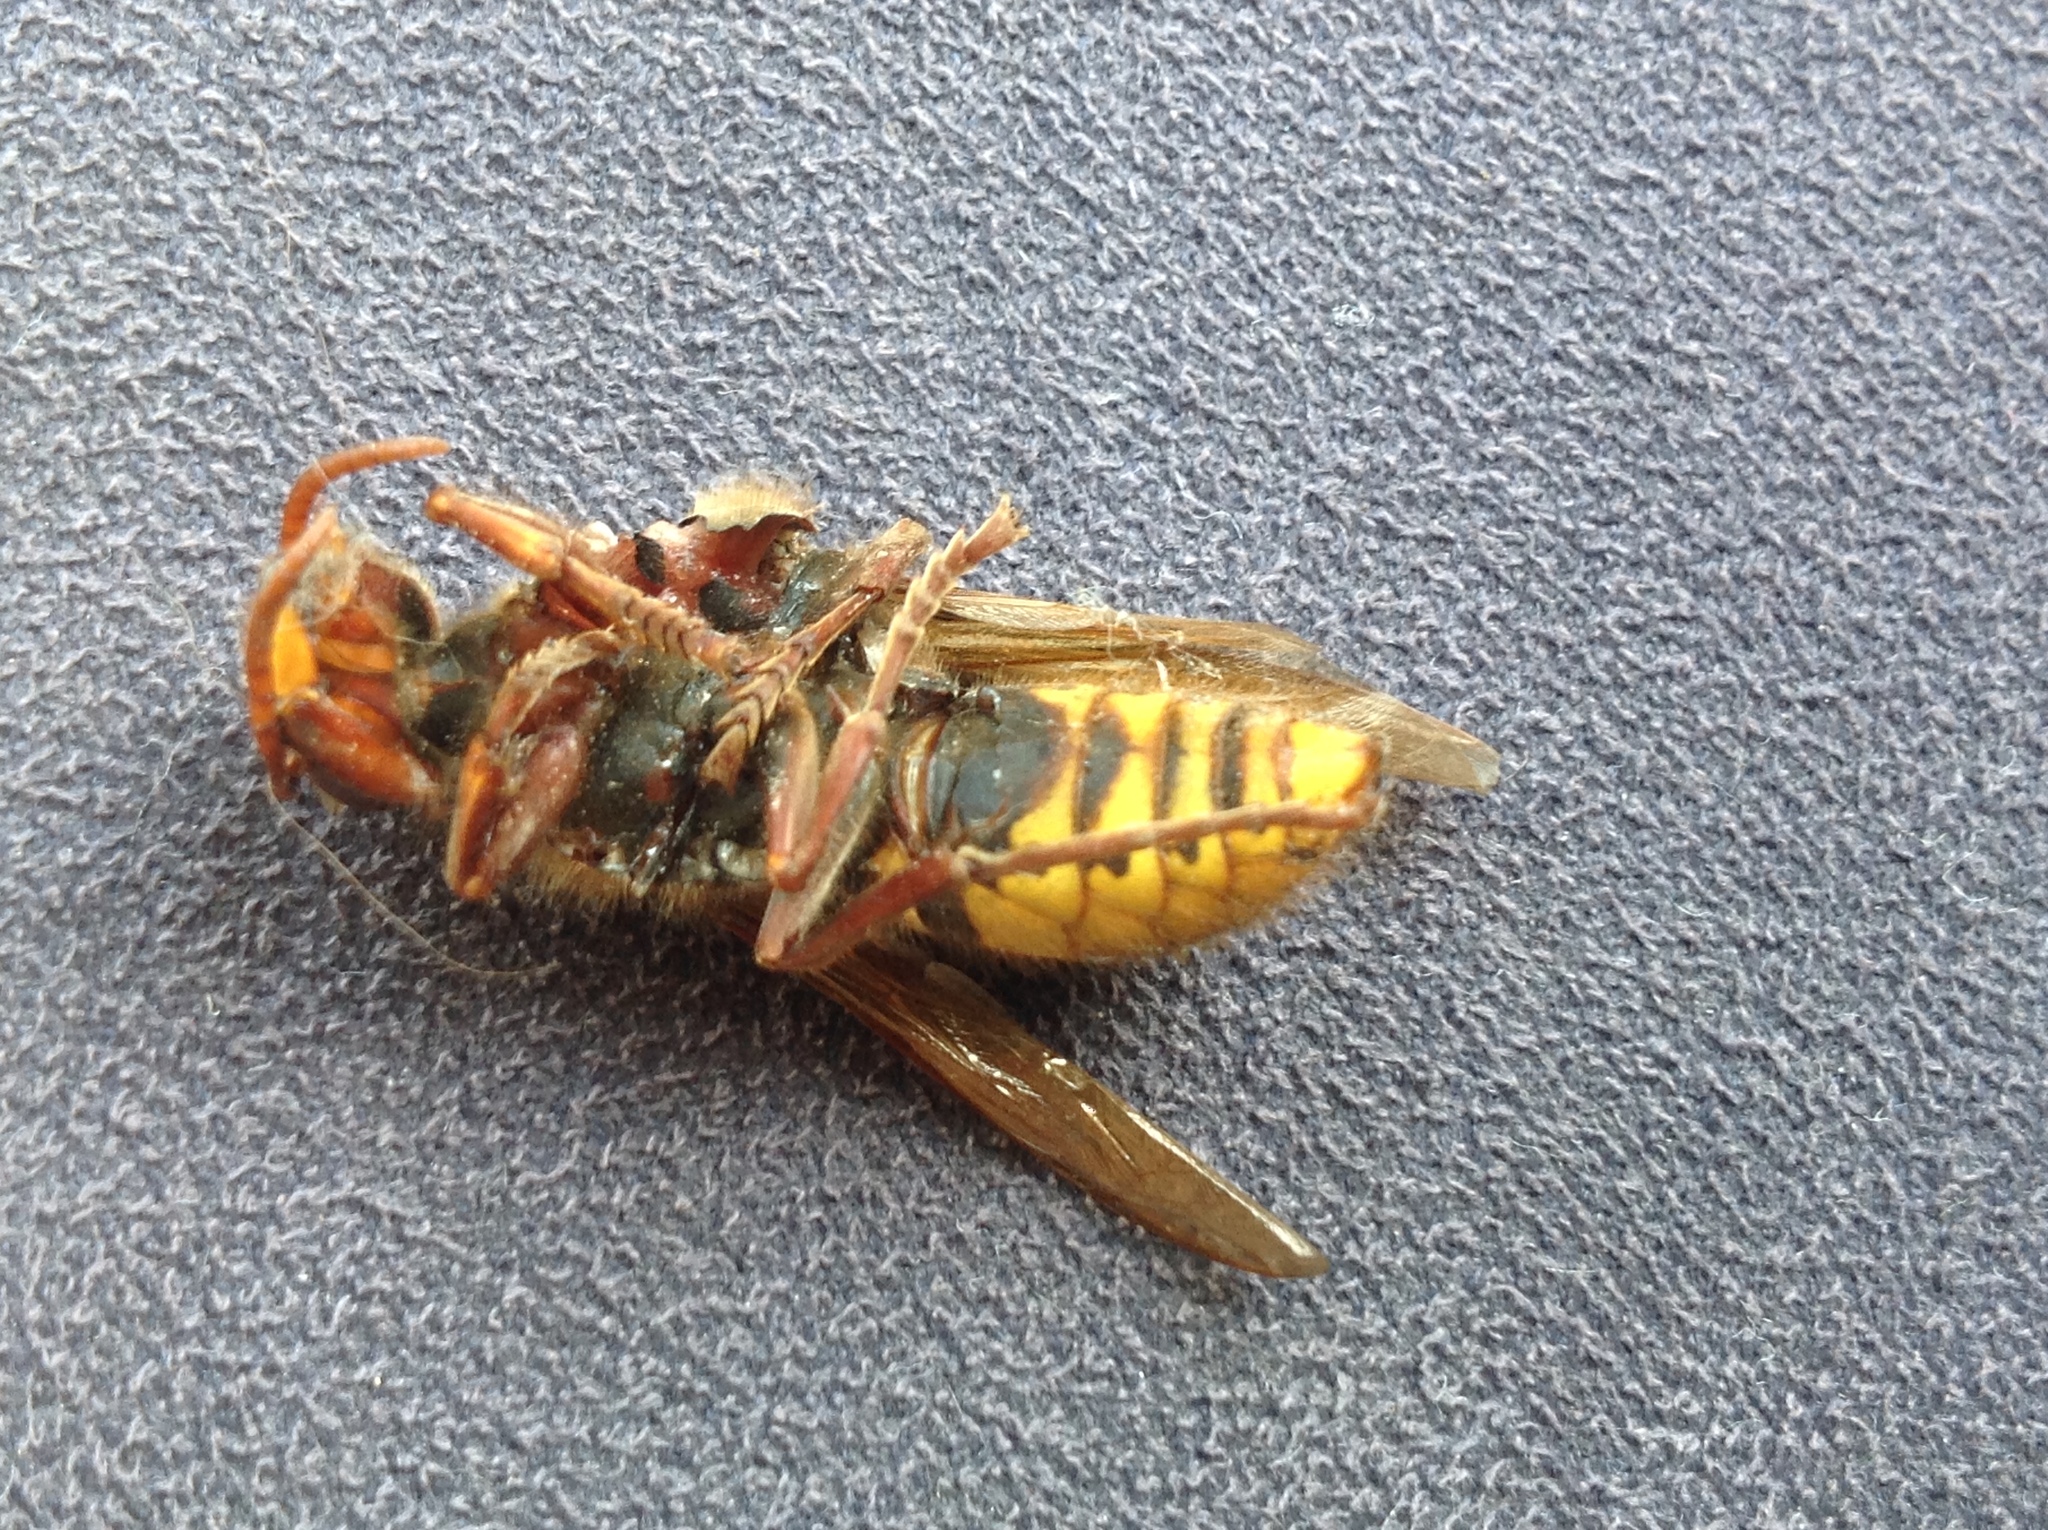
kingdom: Animalia
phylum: Arthropoda
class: Insecta
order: Hymenoptera
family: Vespidae
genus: Vespa
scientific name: Vespa crabro
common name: Hornet
